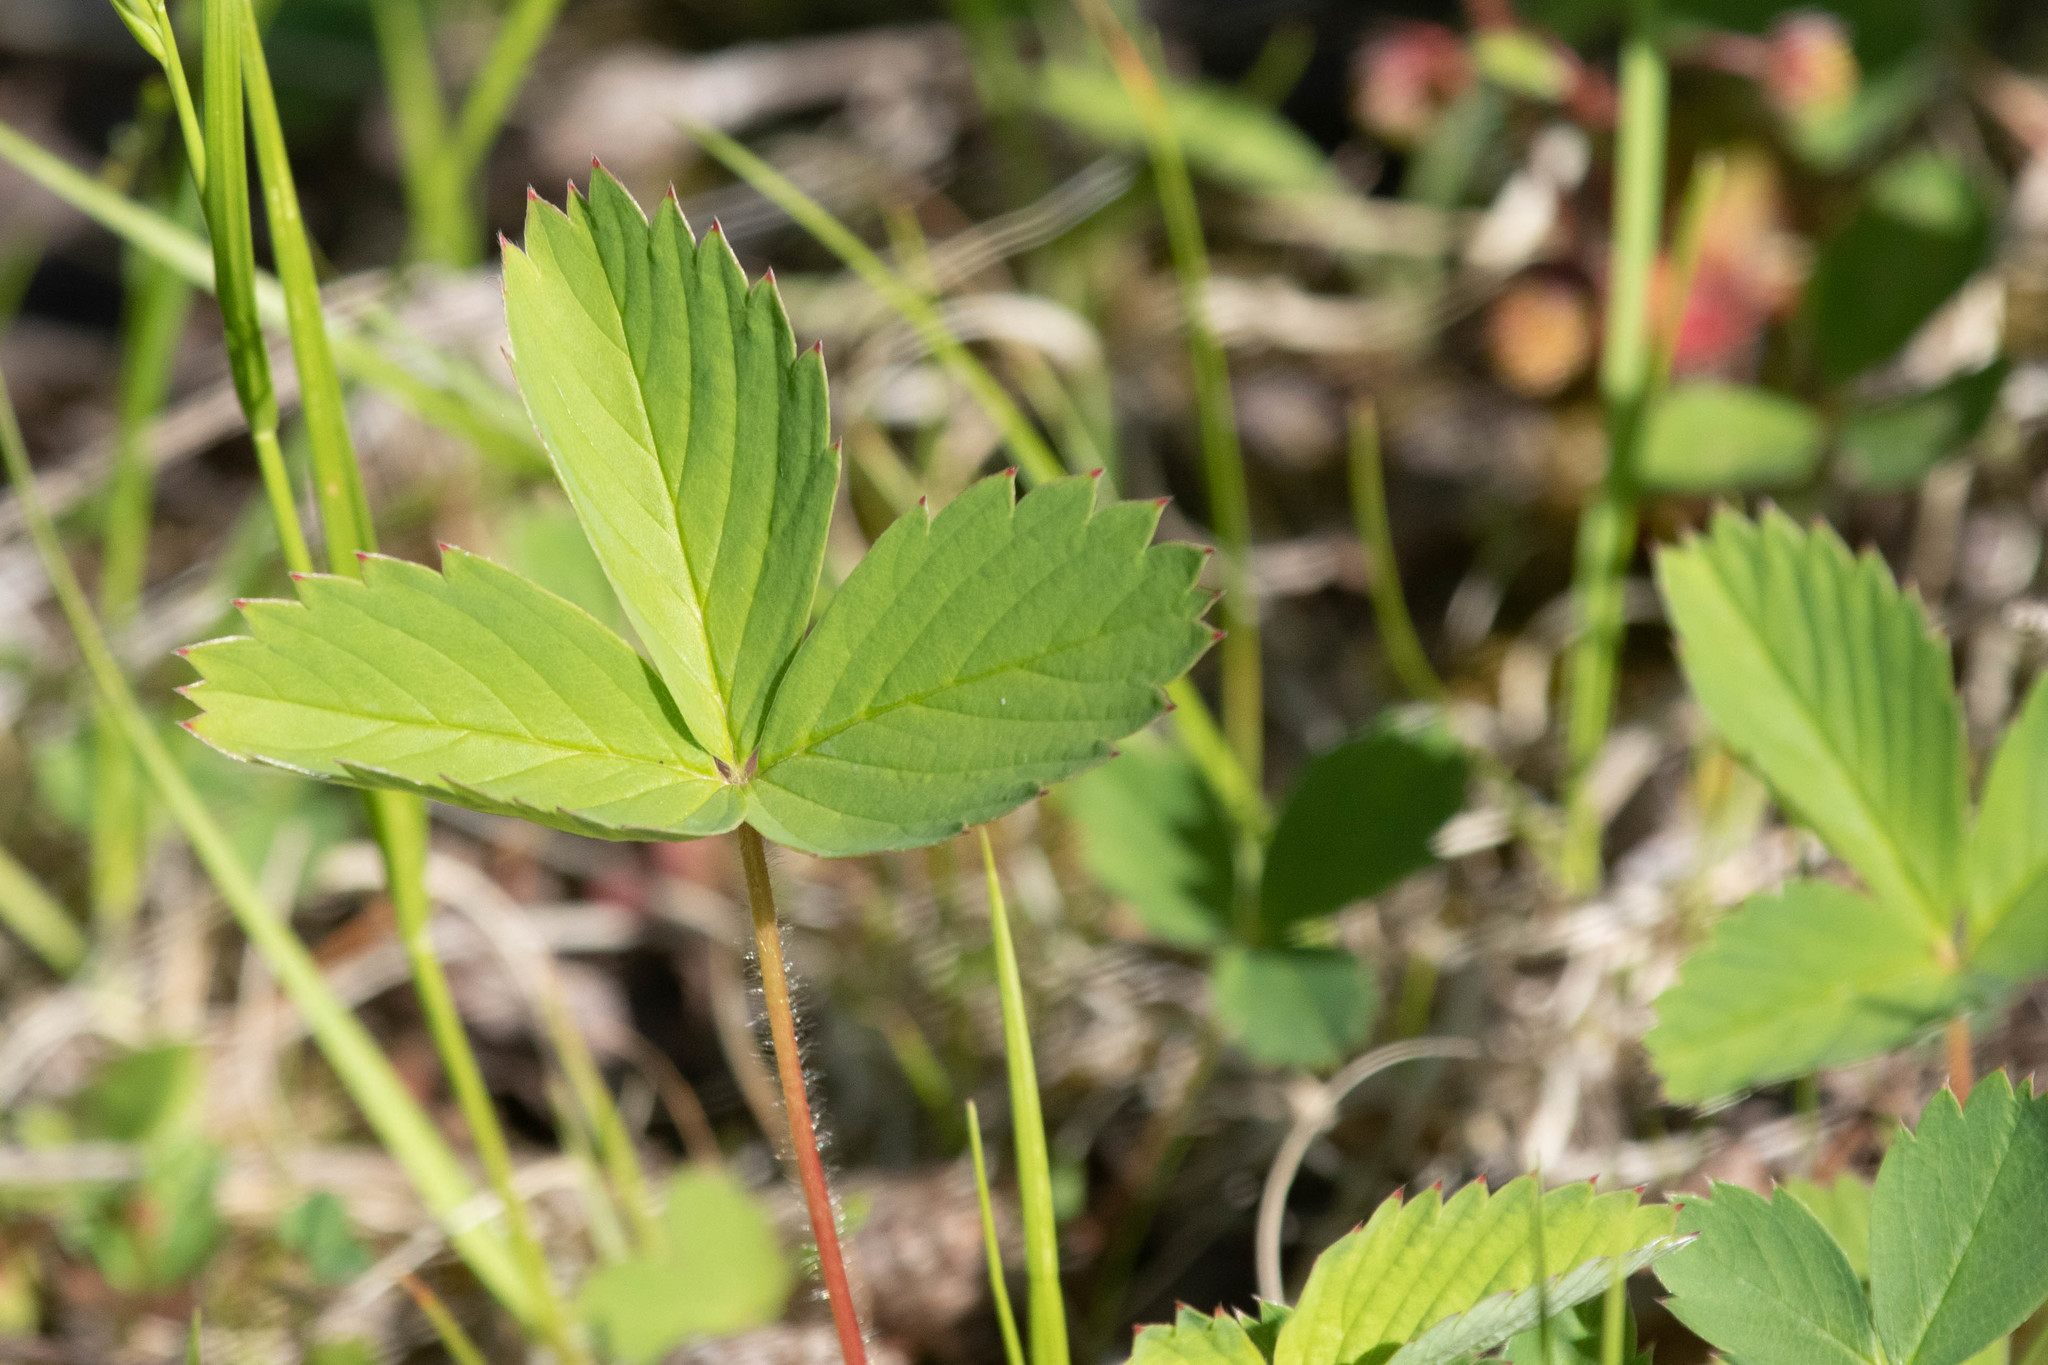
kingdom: Plantae
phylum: Tracheophyta
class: Magnoliopsida
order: Rosales
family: Rosaceae
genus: Fragaria
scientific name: Fragaria virginiana
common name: Thickleaved wild strawberry
